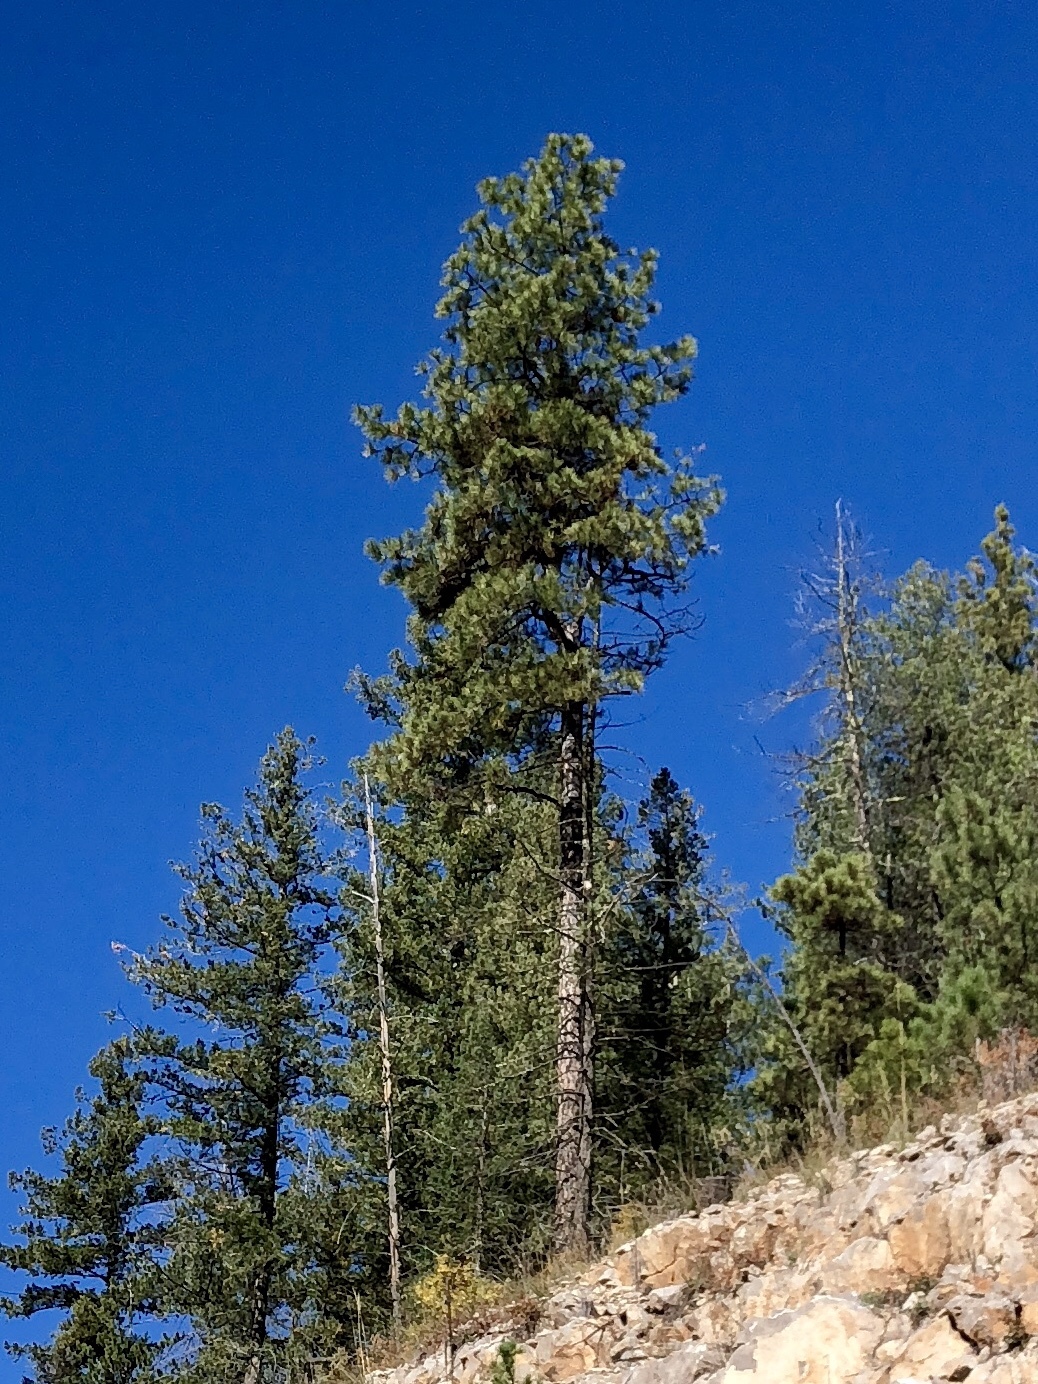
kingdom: Plantae
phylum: Tracheophyta
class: Pinopsida
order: Pinales
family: Pinaceae
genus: Pinus
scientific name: Pinus ponderosa
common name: Western yellow-pine
